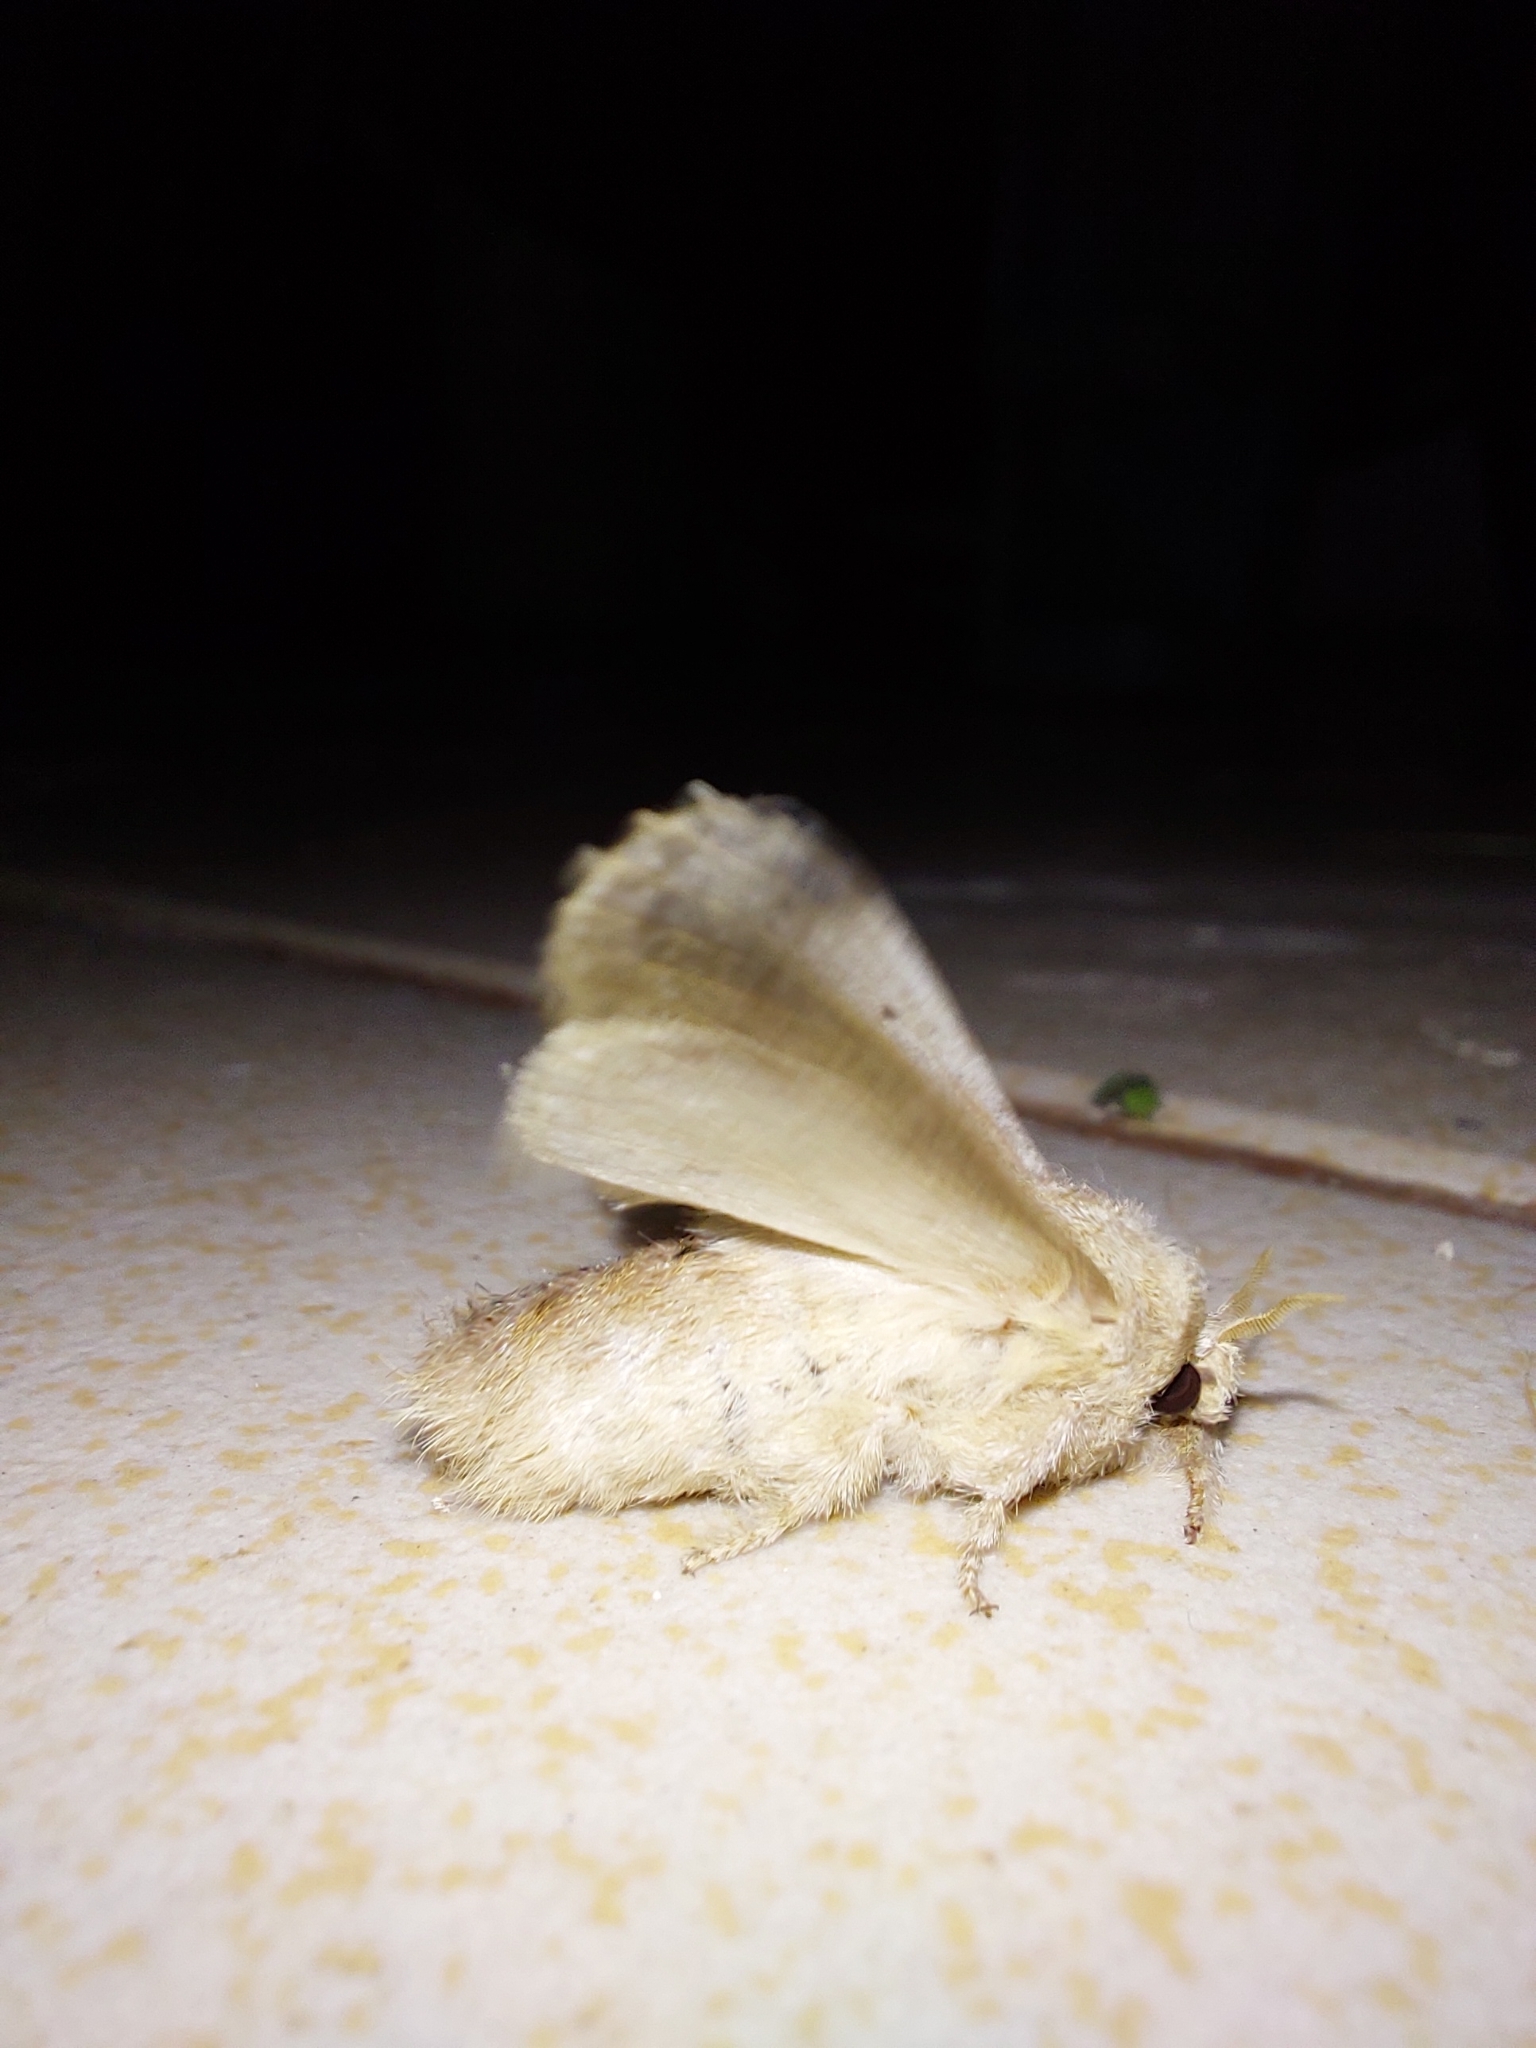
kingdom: Animalia
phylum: Arthropoda
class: Insecta
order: Lepidoptera
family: Lasiocampidae
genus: Tolype
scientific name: Tolype nana
